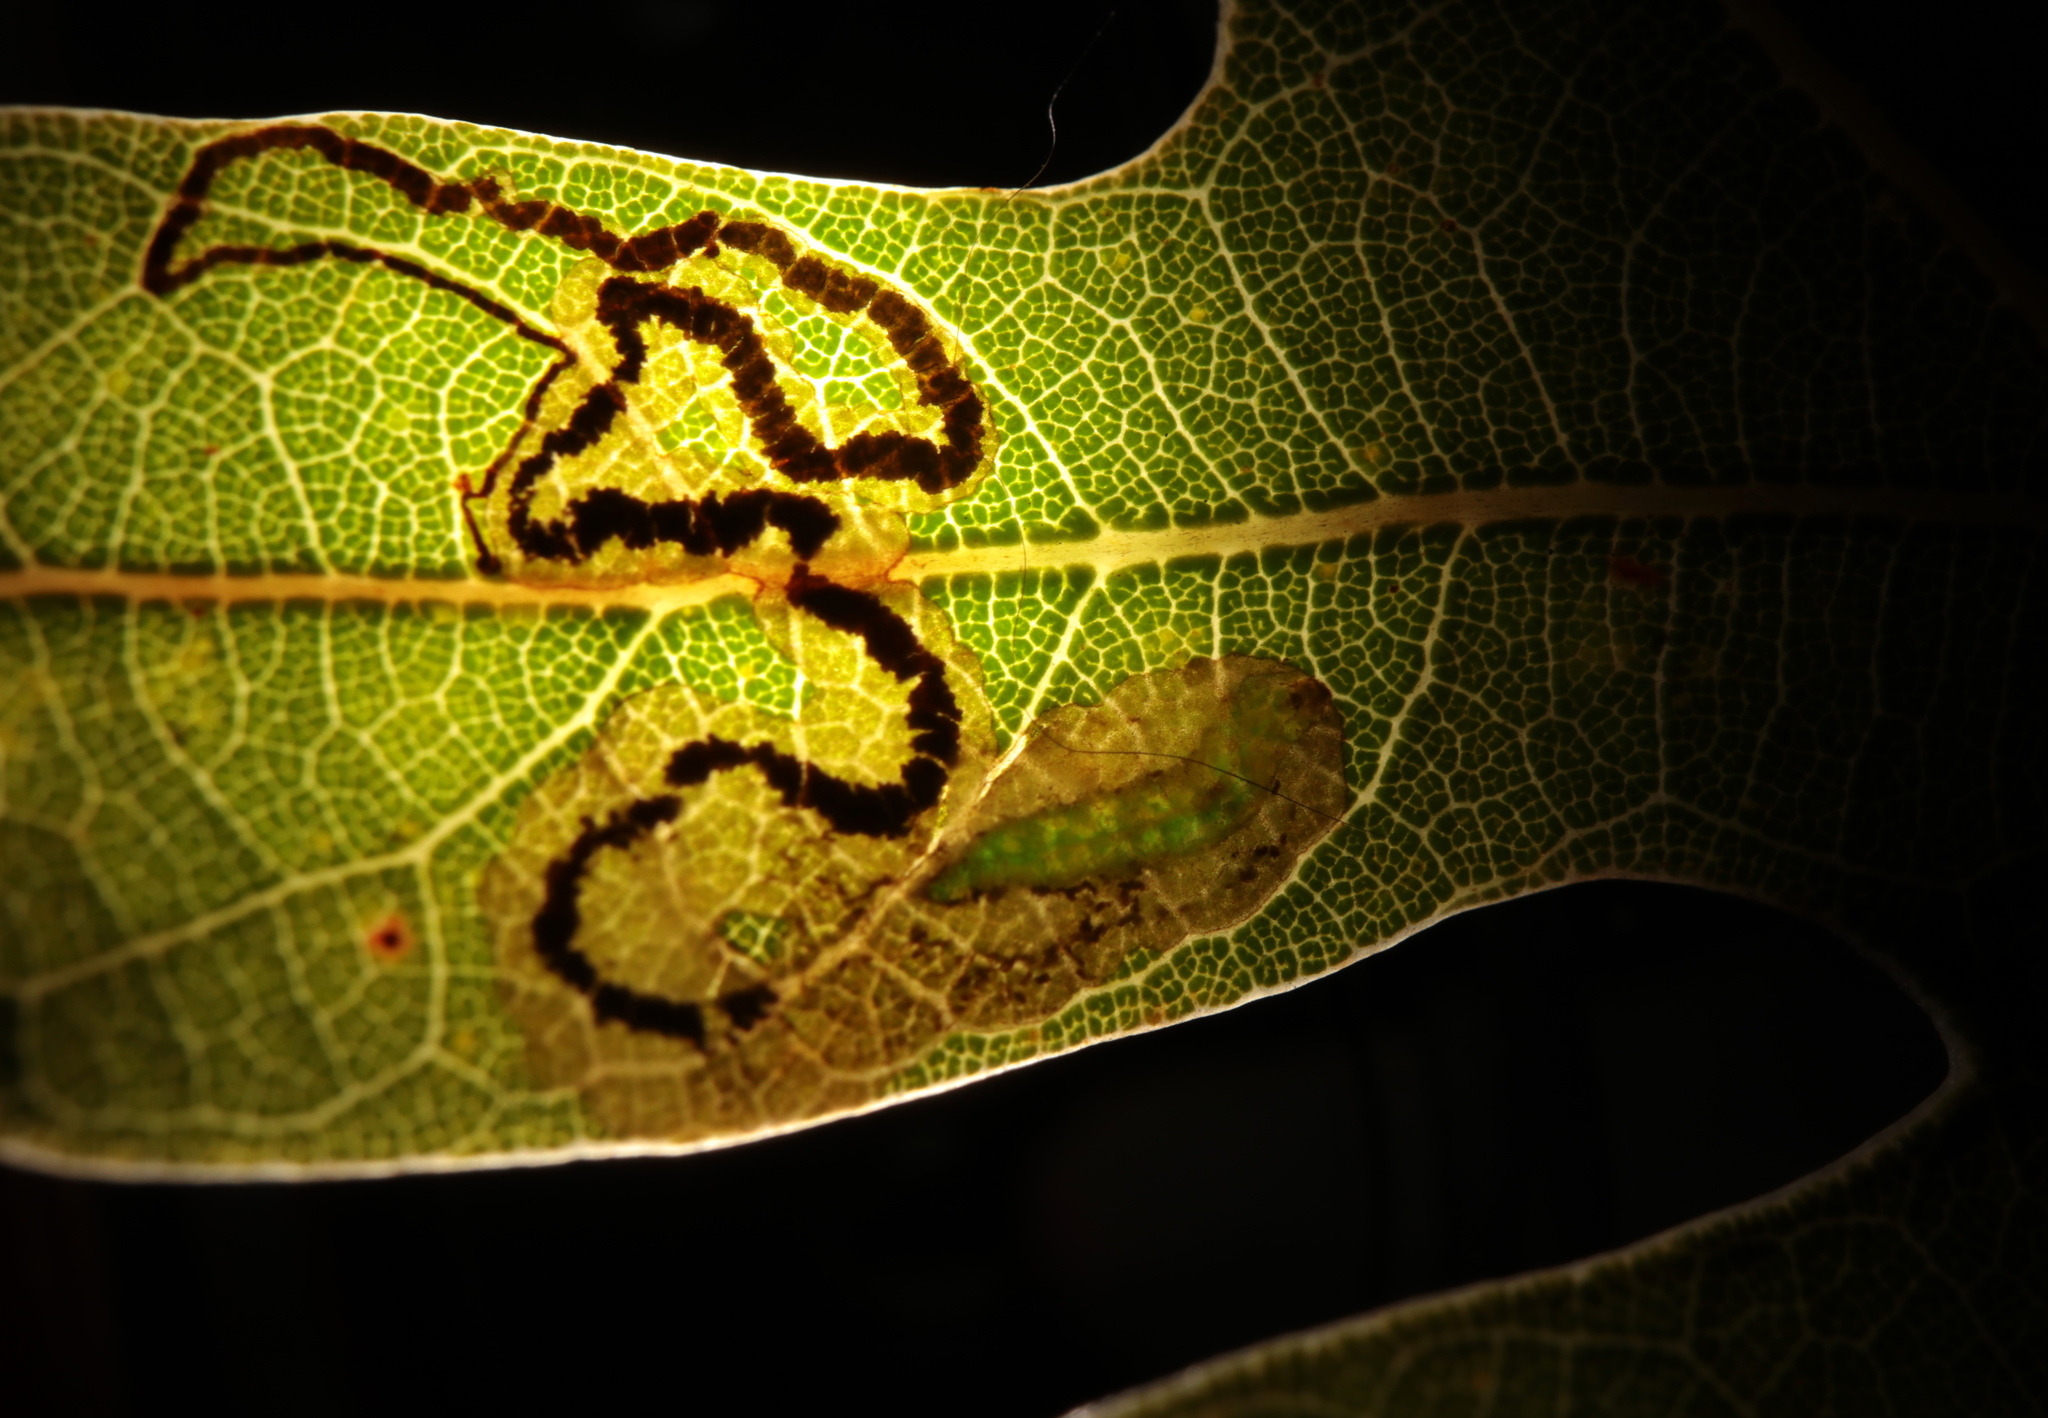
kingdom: Animalia
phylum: Arthropoda
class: Insecta
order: Lepidoptera
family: Nepticulidae
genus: Stigmella
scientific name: Stigmella saginella
